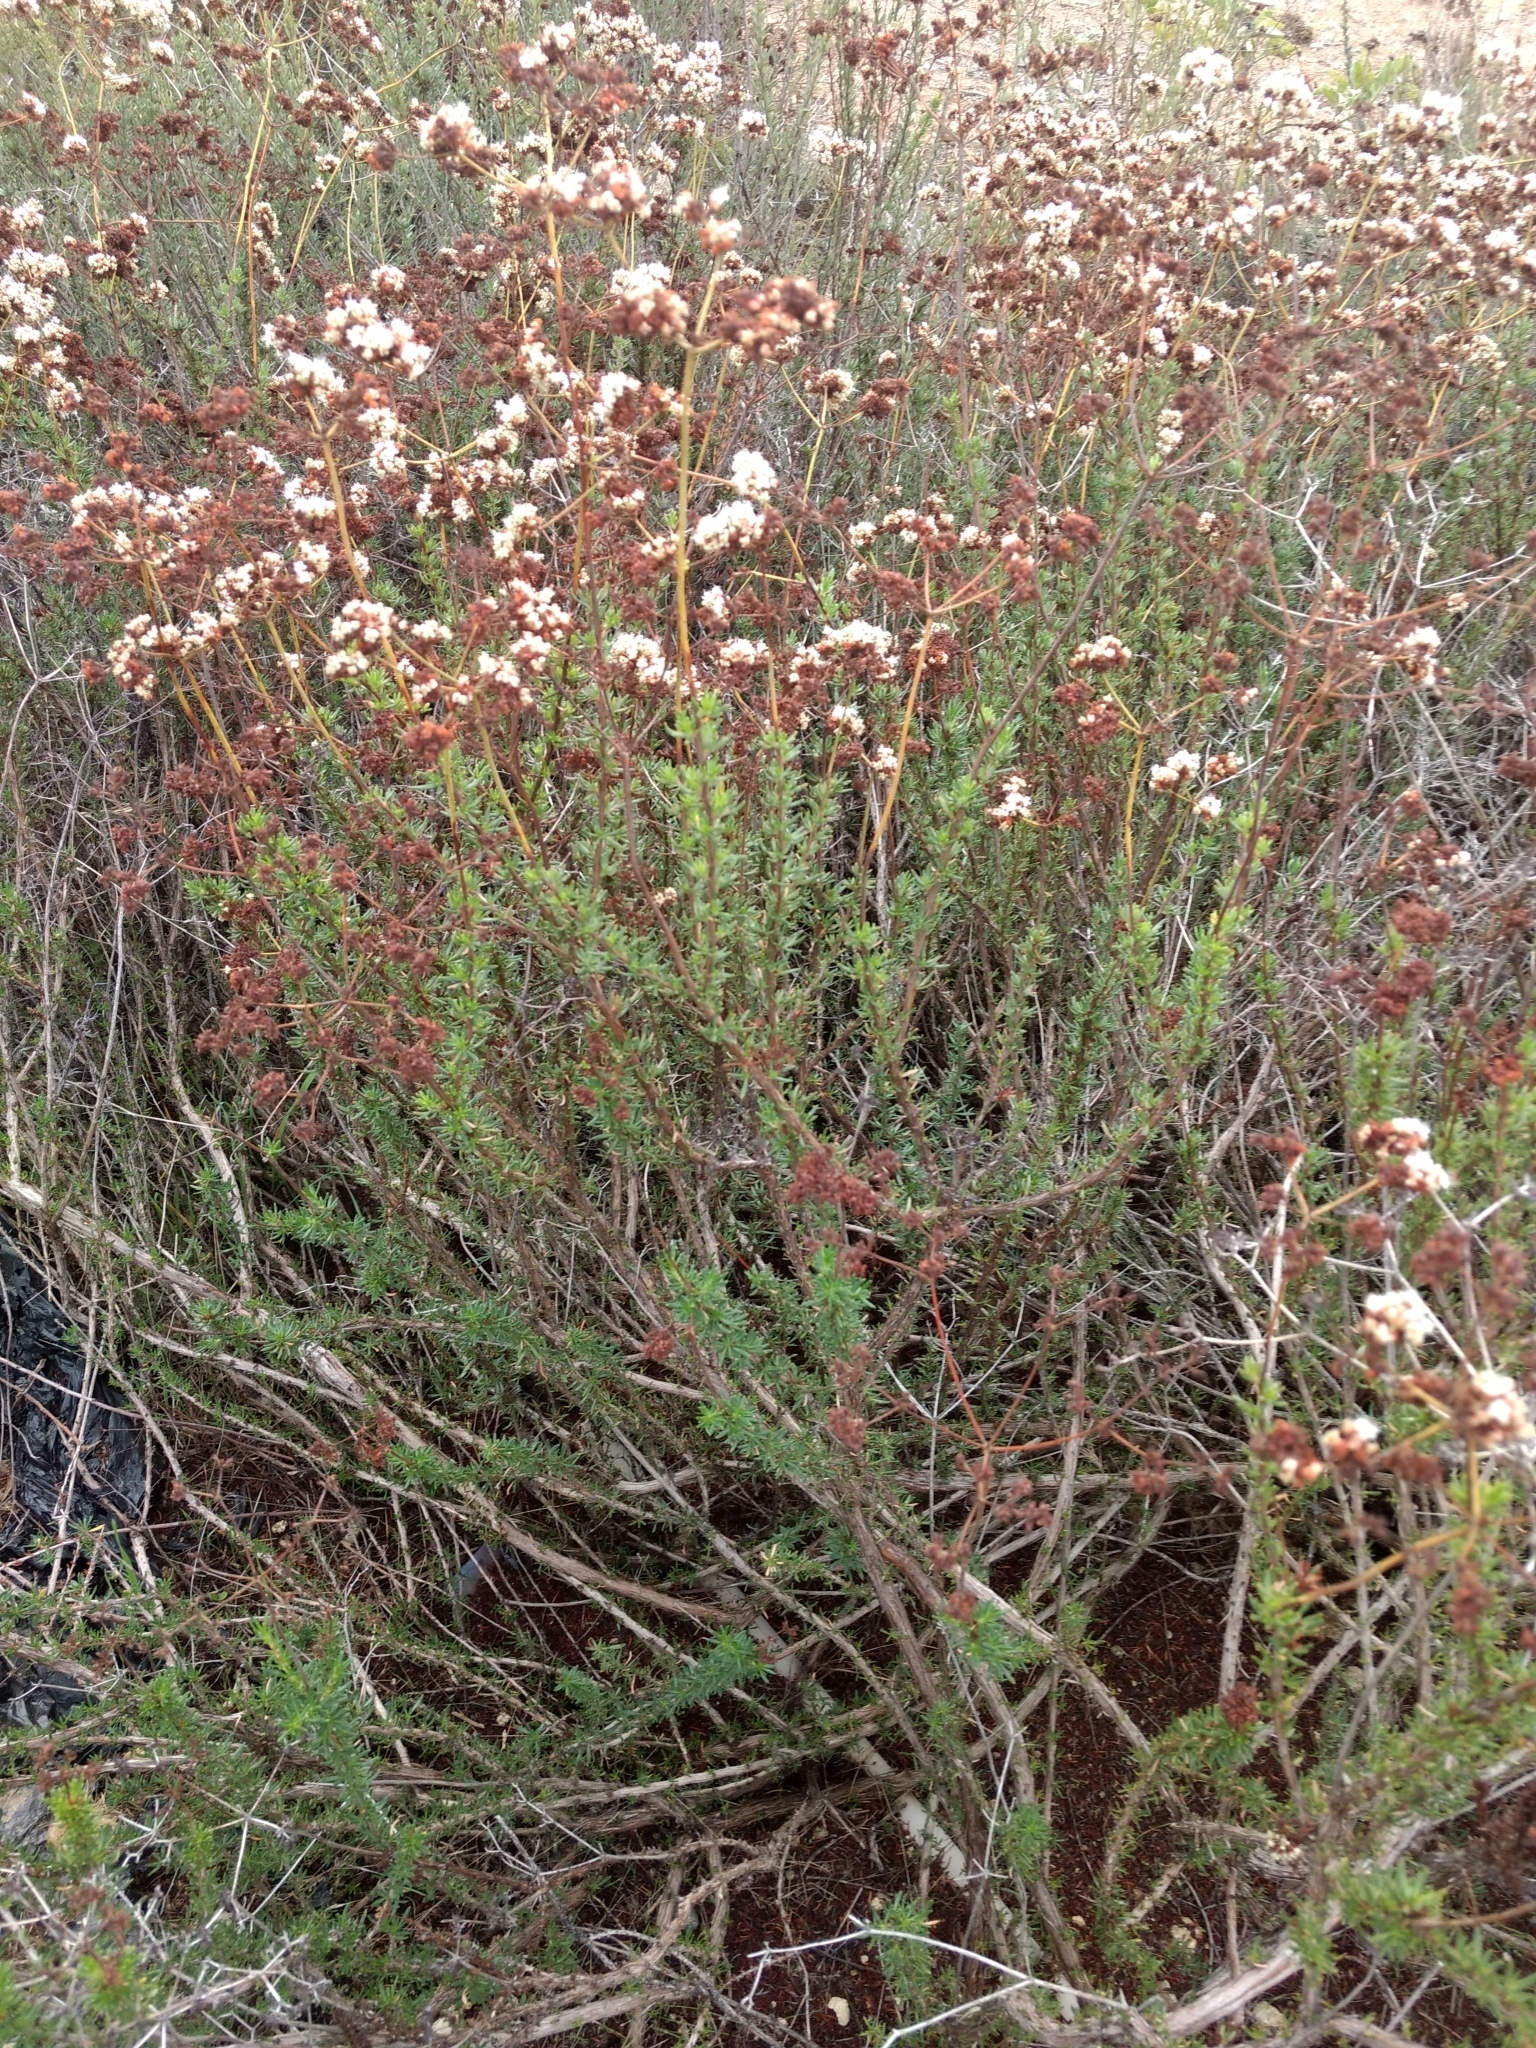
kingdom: Plantae
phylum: Tracheophyta
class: Magnoliopsida
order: Caryophyllales
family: Polygonaceae
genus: Eriogonum
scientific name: Eriogonum fasciculatum
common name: California wild buckwheat
